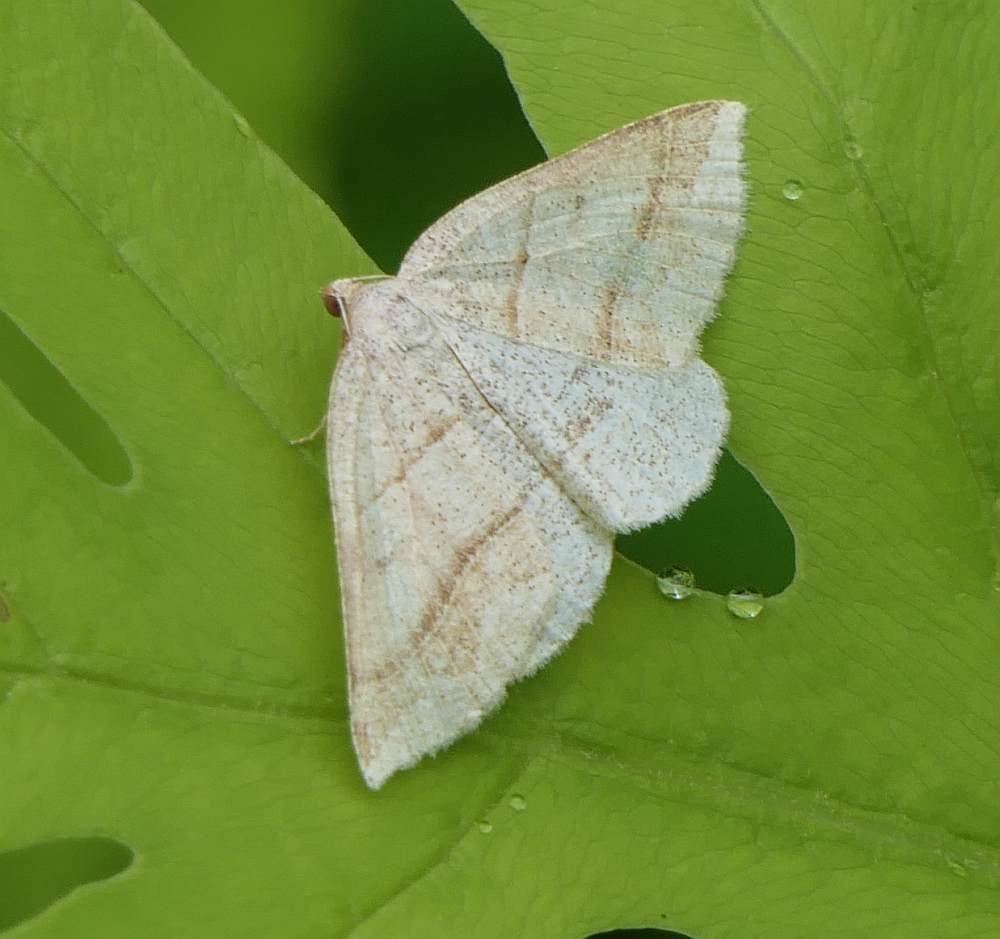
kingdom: Animalia
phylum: Arthropoda
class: Insecta
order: Lepidoptera
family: Pterophoridae
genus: Pterophorus
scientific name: Pterophorus Petrophora subaequaria
